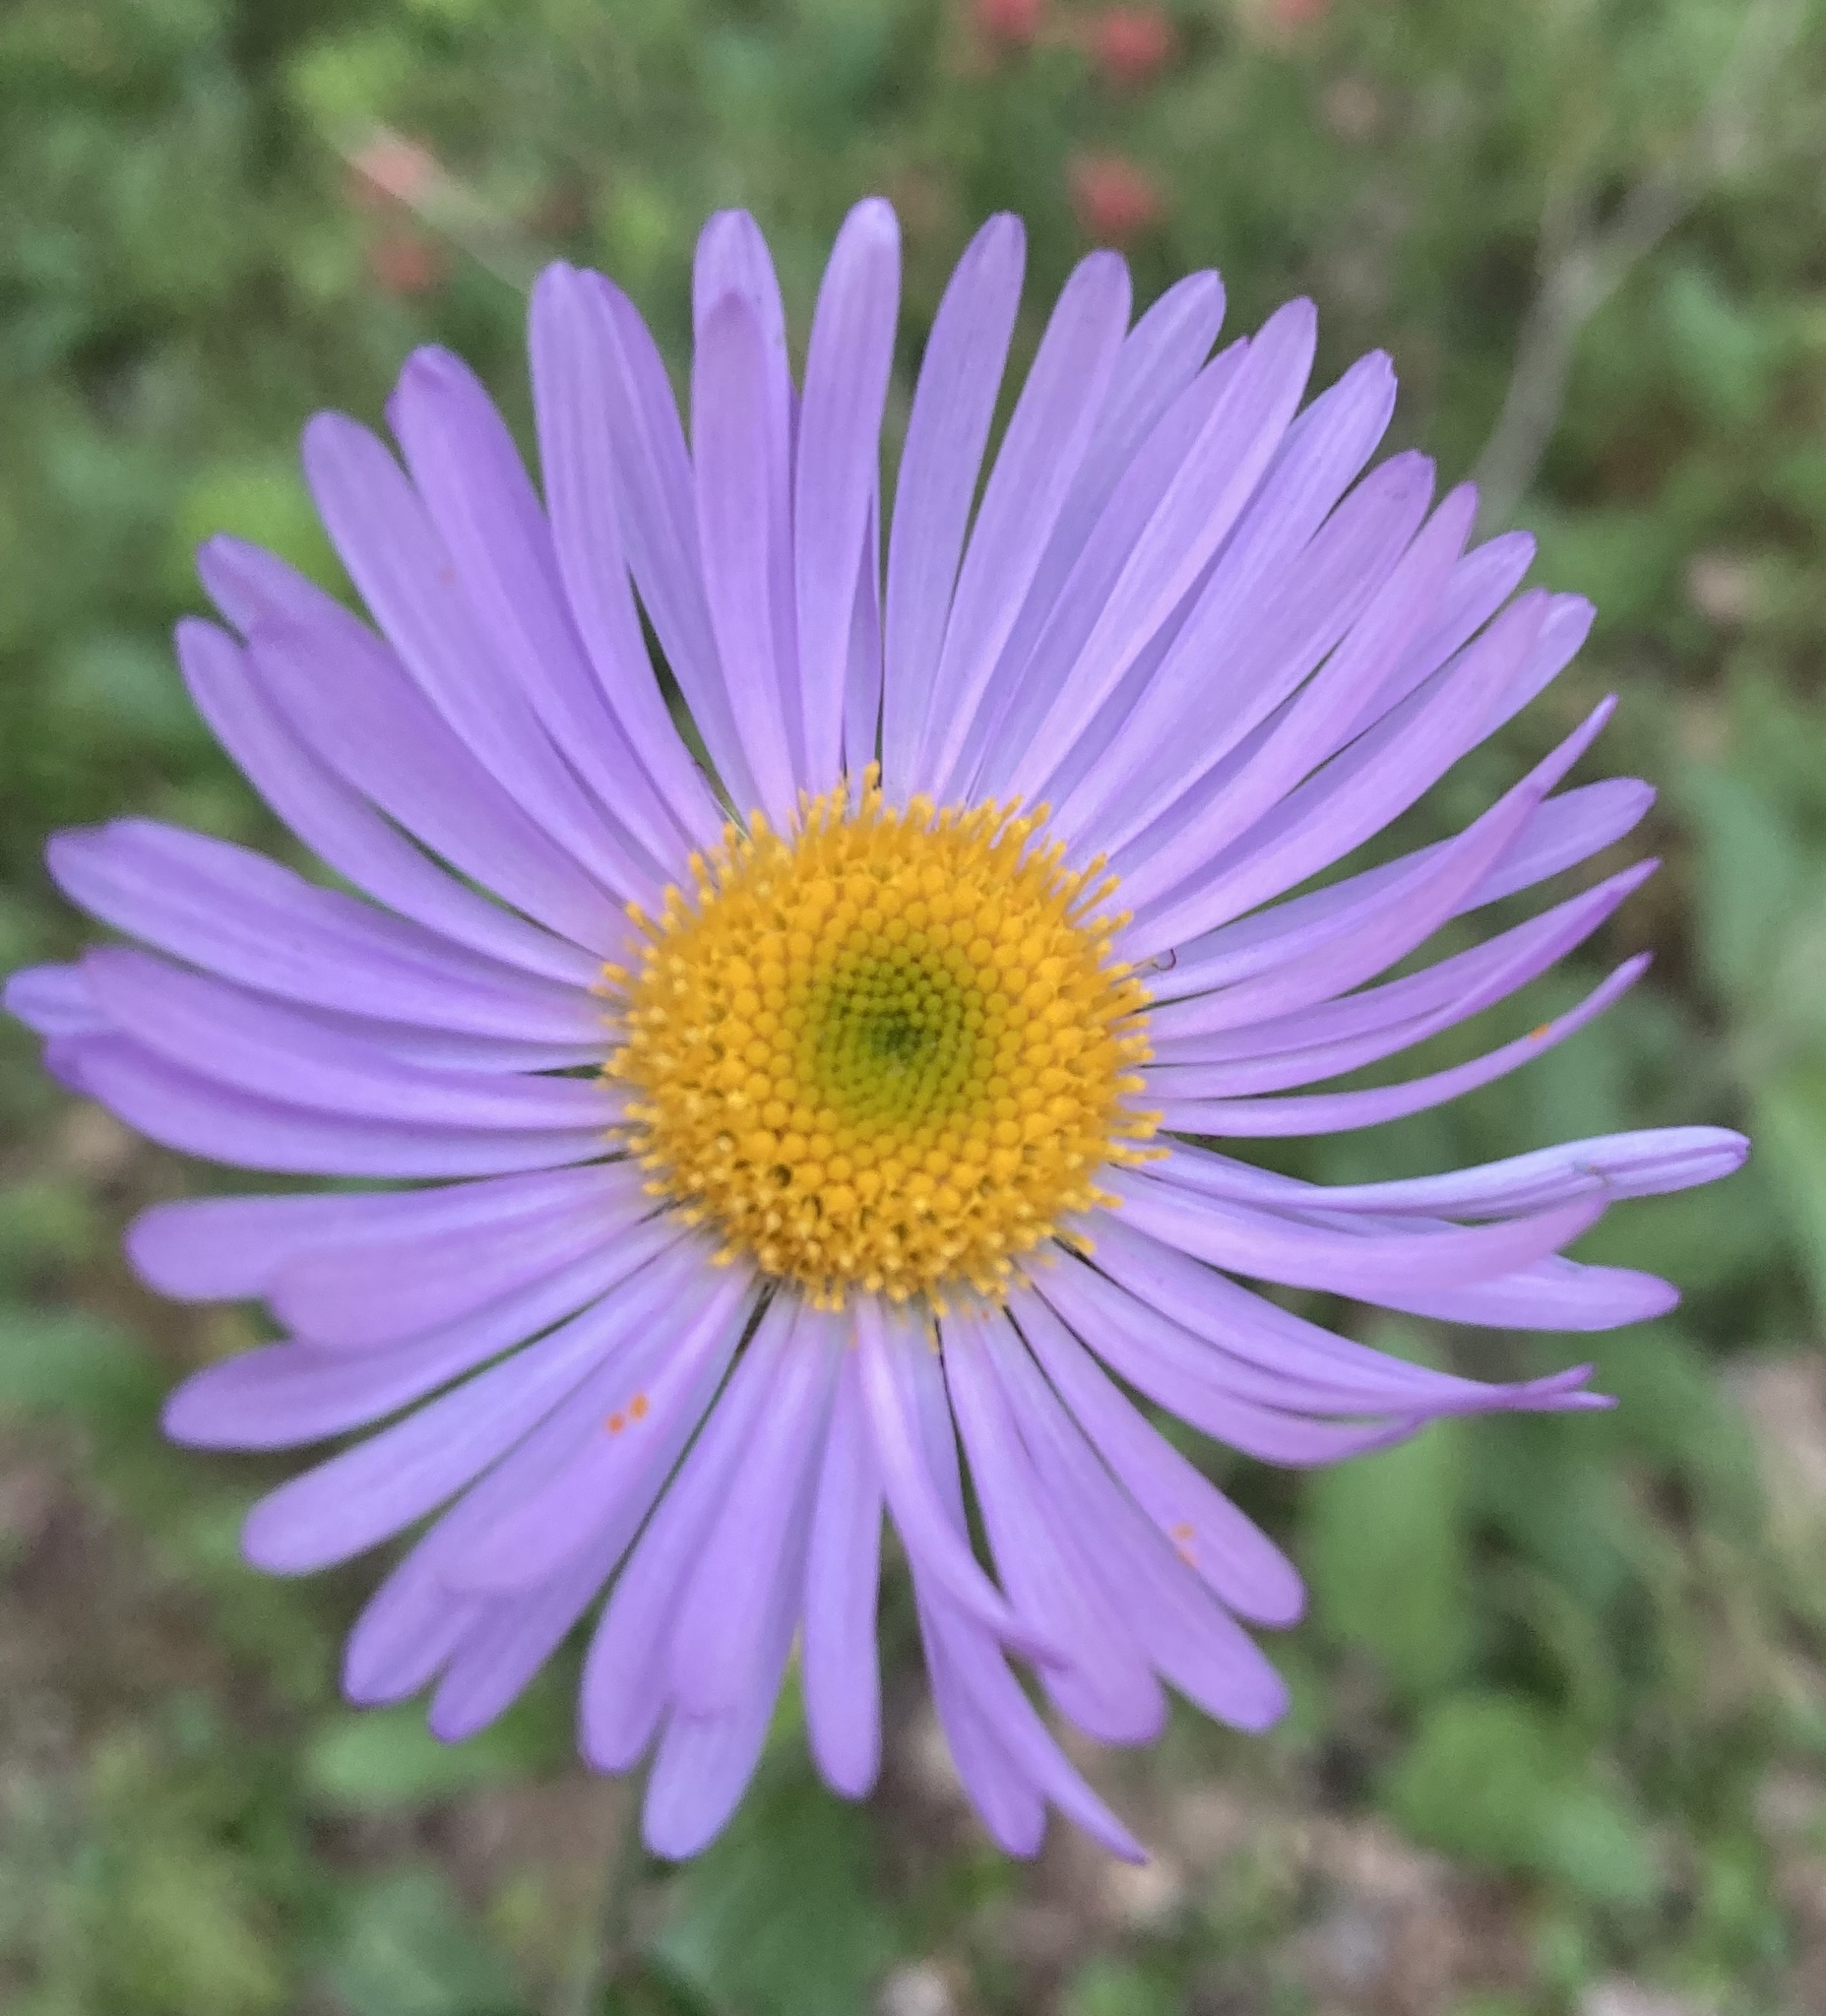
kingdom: Plantae
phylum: Tracheophyta
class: Magnoliopsida
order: Asterales
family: Asteraceae
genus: Erigeron
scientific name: Erigeron glacialis
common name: Subalpine fleabane
